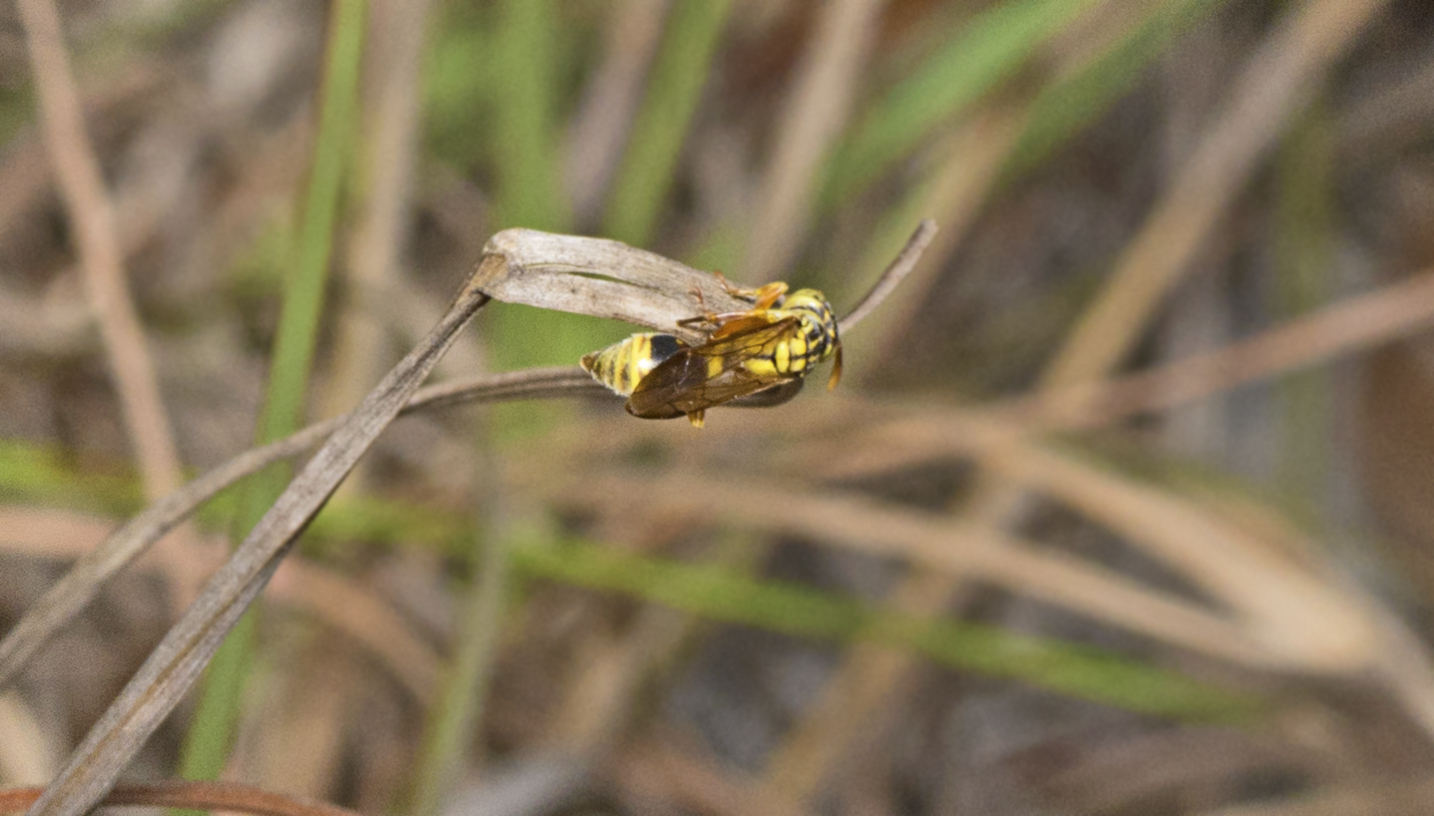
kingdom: Animalia
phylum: Arthropoda
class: Insecta
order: Hymenoptera
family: Vespidae
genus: Ropalidia
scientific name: Ropalidia romandi
